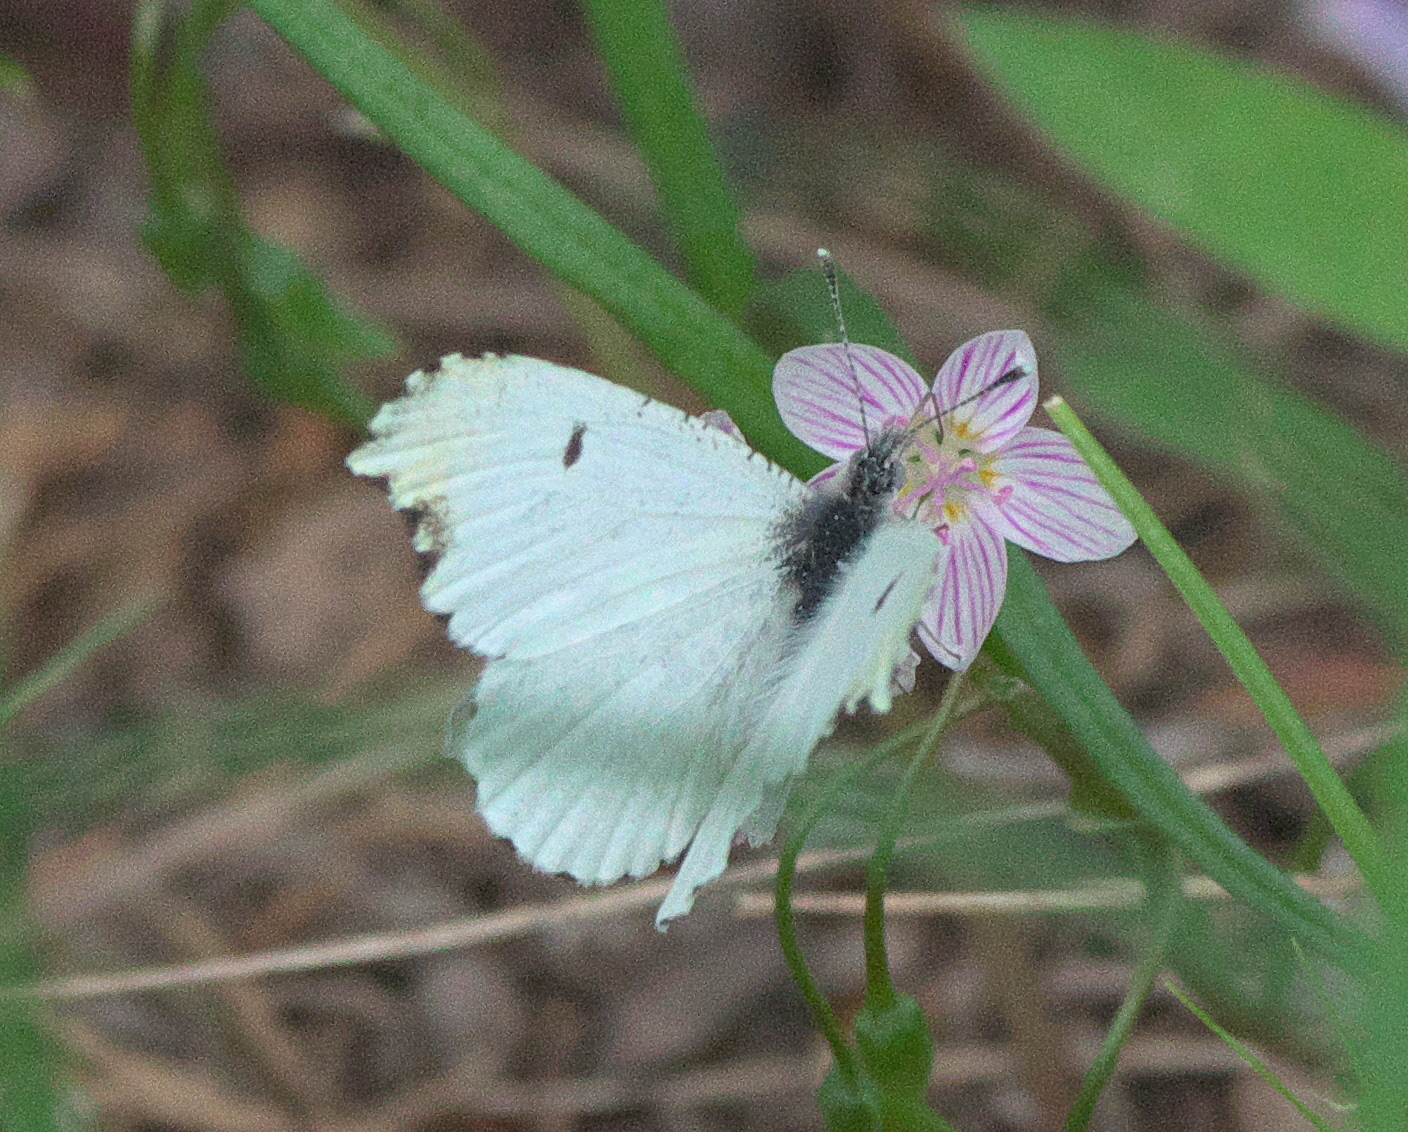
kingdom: Animalia
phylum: Arthropoda
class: Insecta
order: Lepidoptera
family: Pieridae
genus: Anthocharis
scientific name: Anthocharis midea
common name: Falcate orangetip
